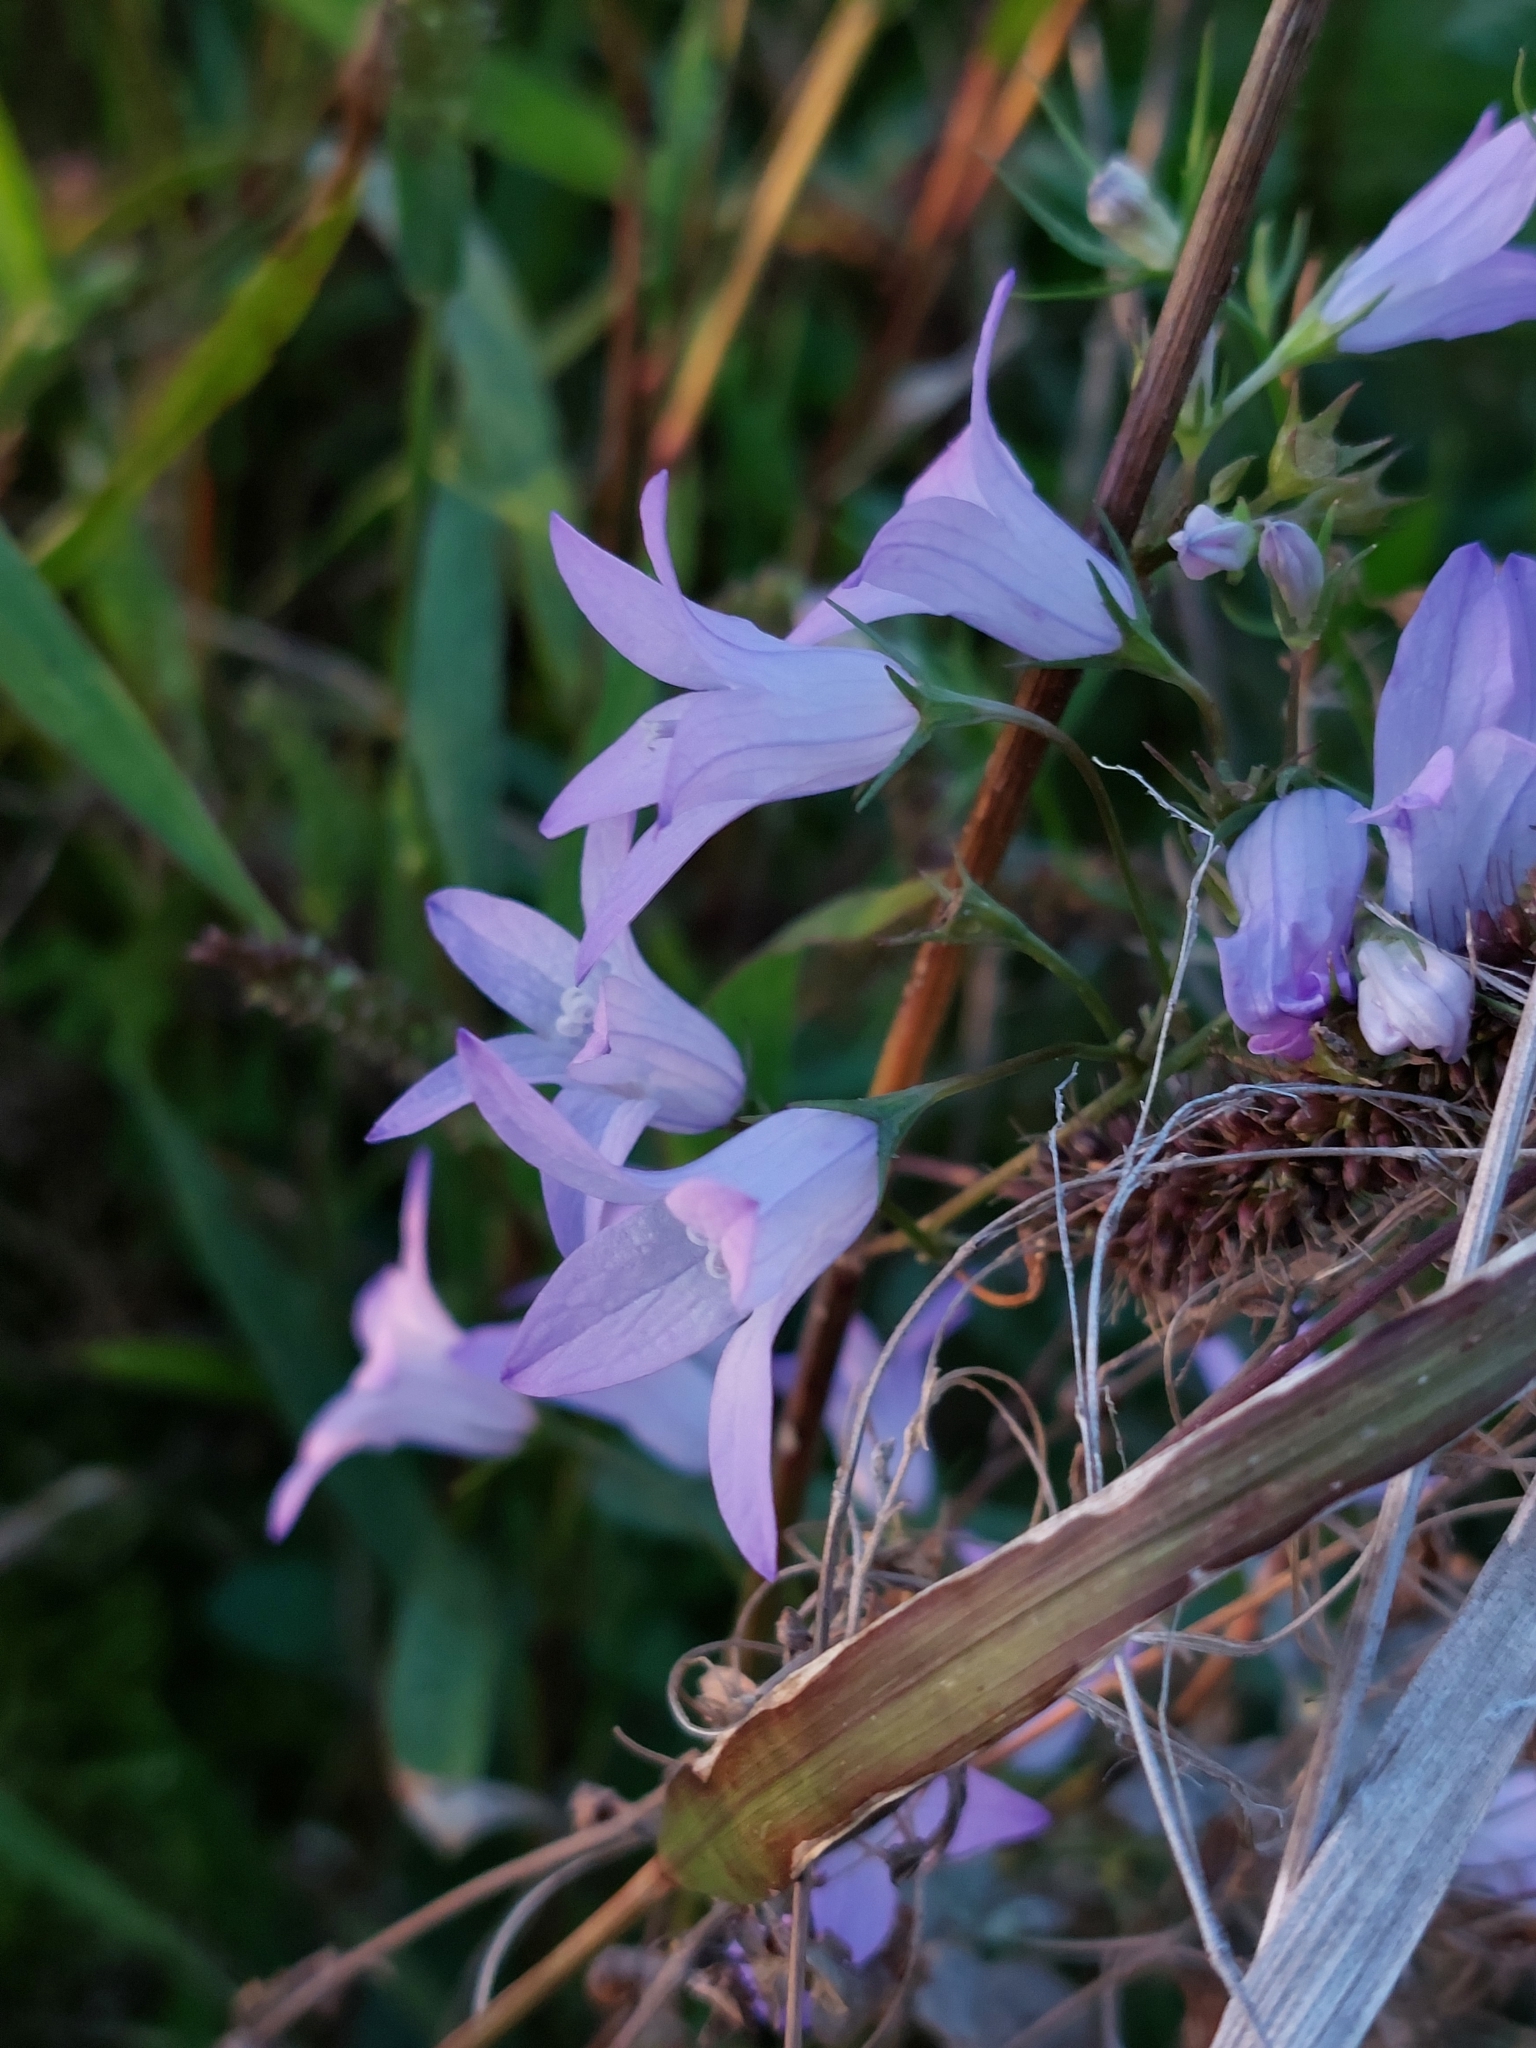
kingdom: Plantae
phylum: Tracheophyta
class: Magnoliopsida
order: Asterales
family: Campanulaceae
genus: Campanula
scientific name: Campanula rapunculus
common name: Rampion bellflower
